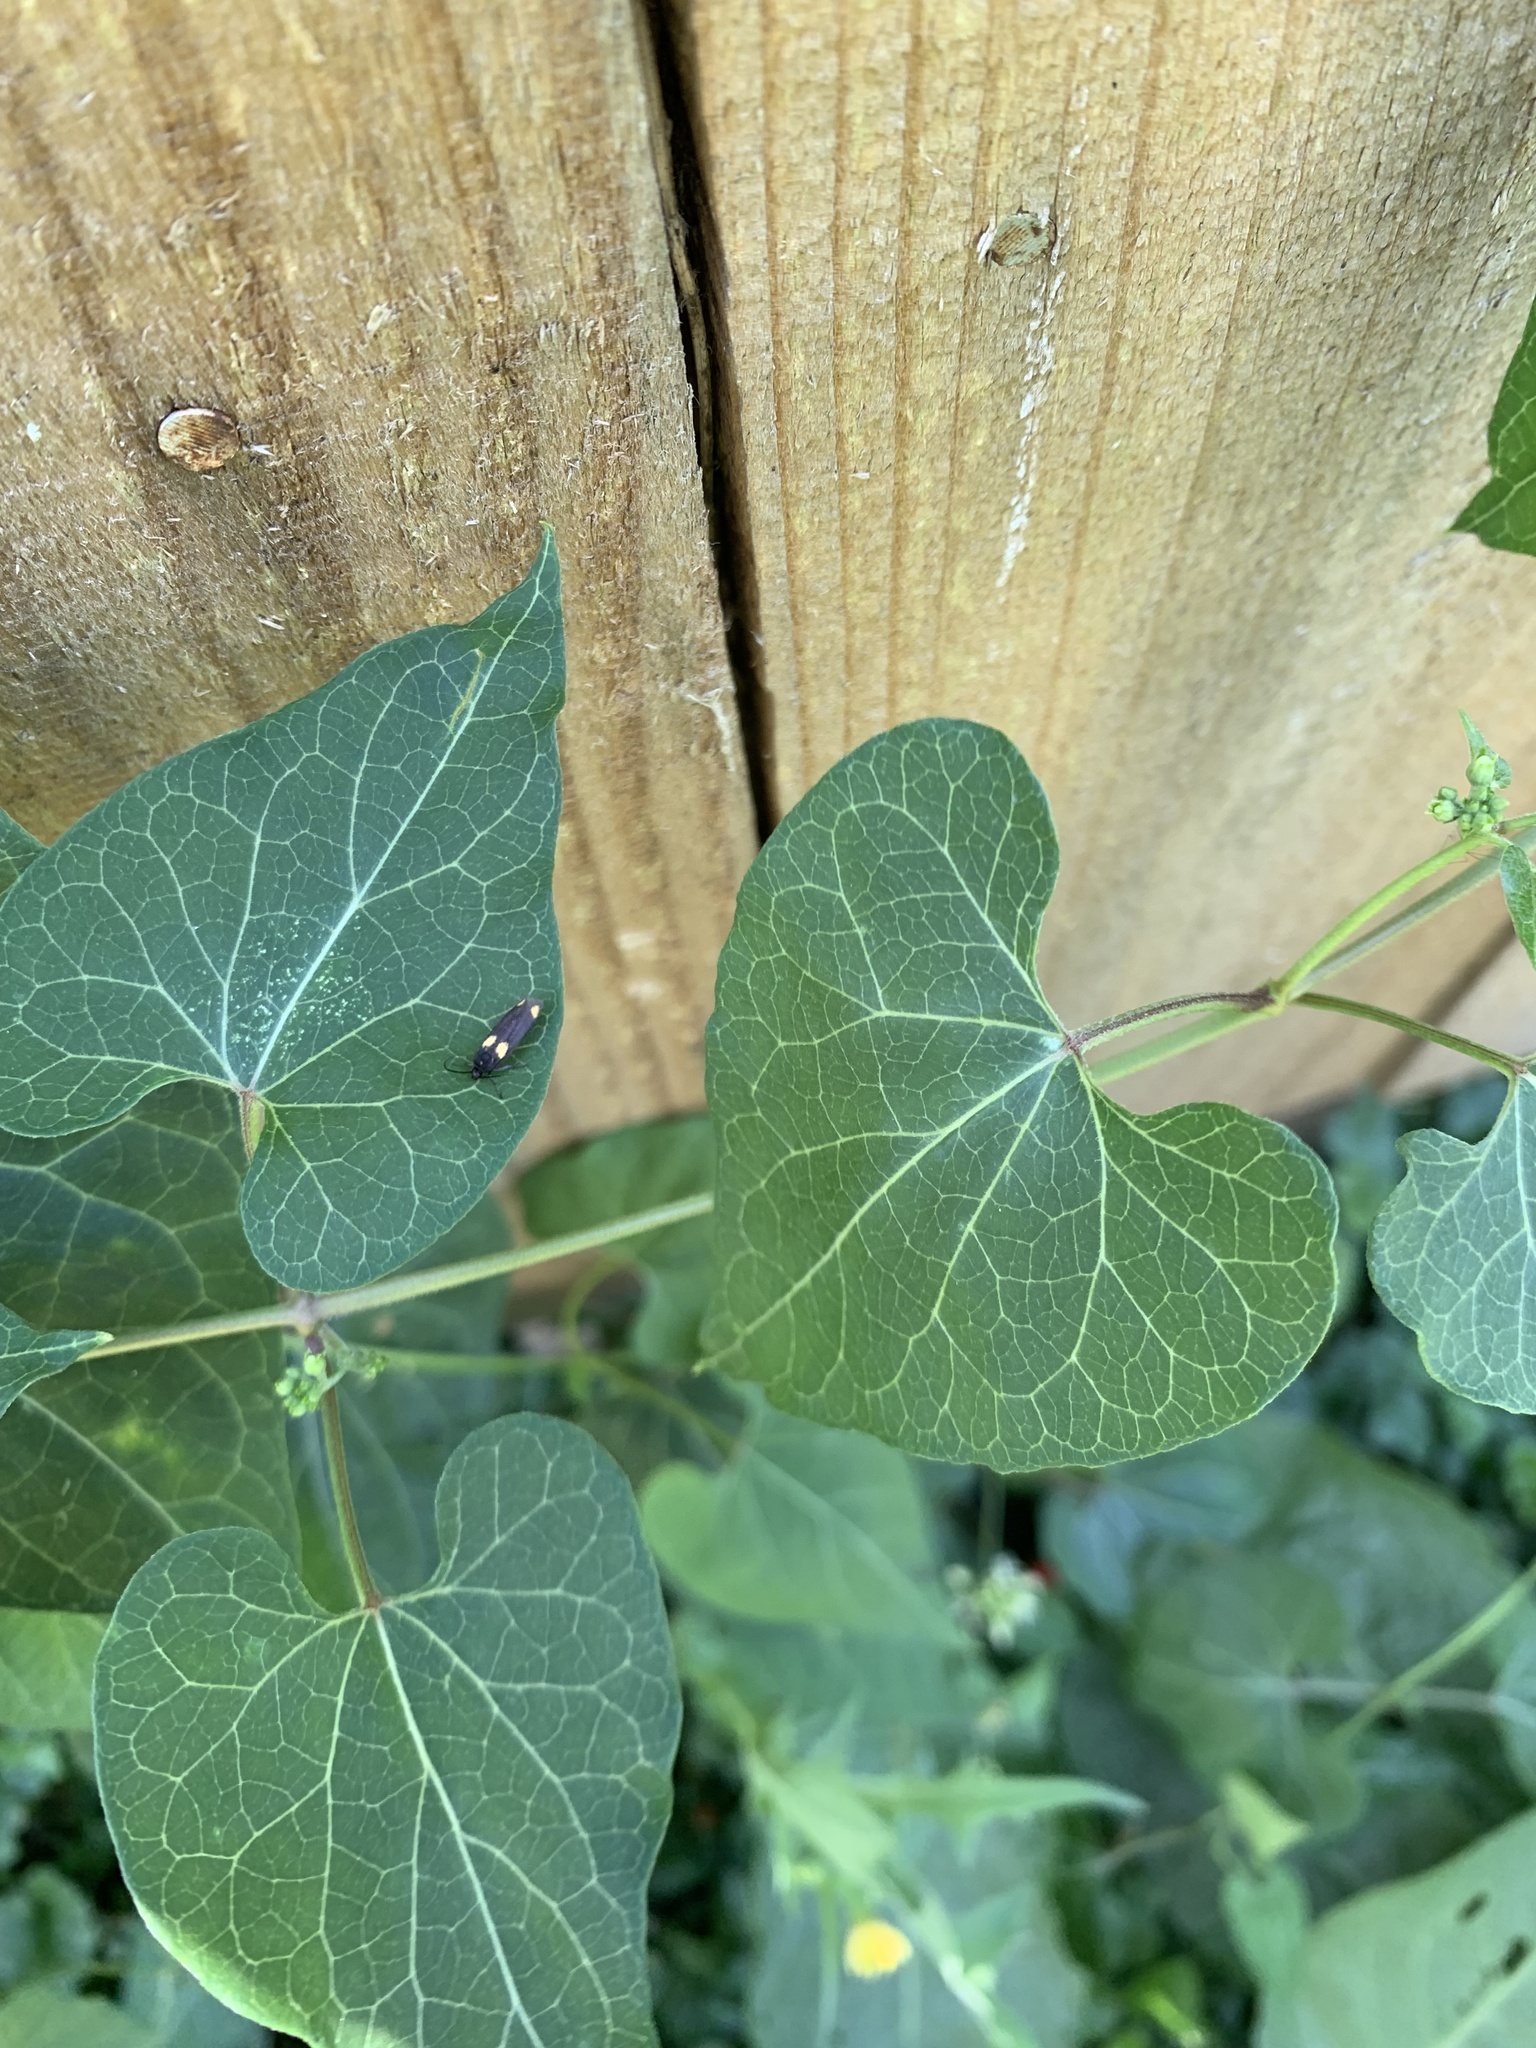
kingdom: Plantae
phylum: Tracheophyta
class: Magnoliopsida
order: Gentianales
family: Apocynaceae
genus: Cynanchum
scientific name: Cynanchum laeve
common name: Sandvine
